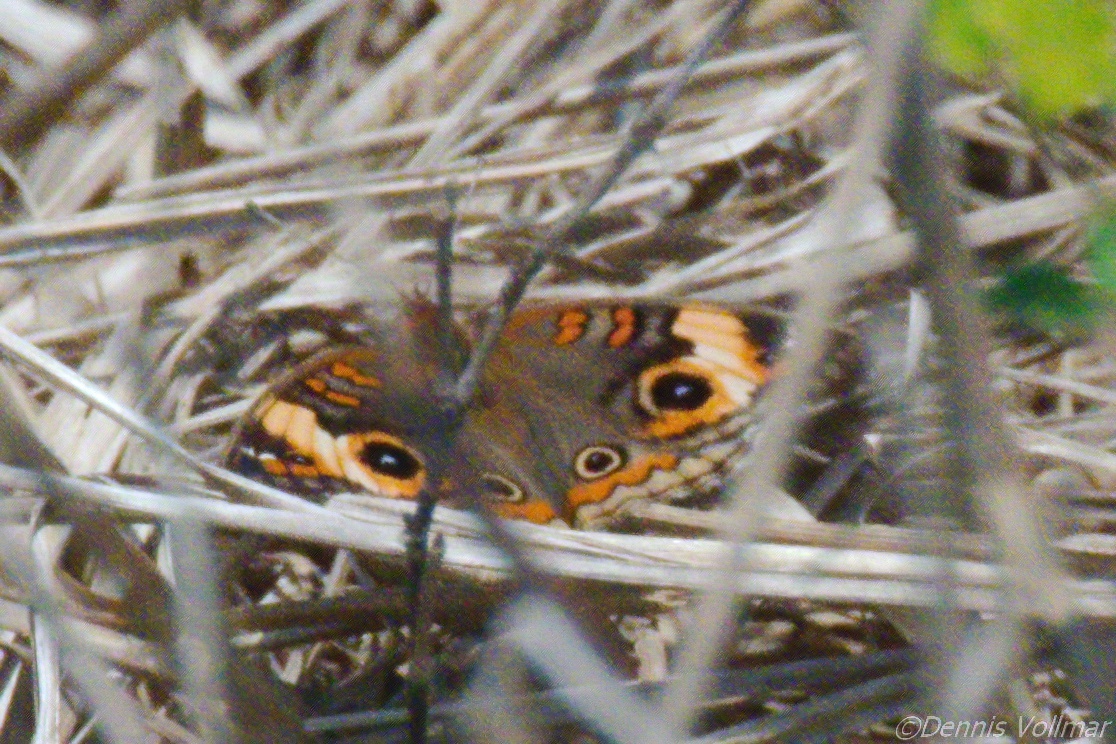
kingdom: Animalia
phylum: Arthropoda
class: Insecta
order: Lepidoptera
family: Nymphalidae
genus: Junonia
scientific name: Junonia lavinia
